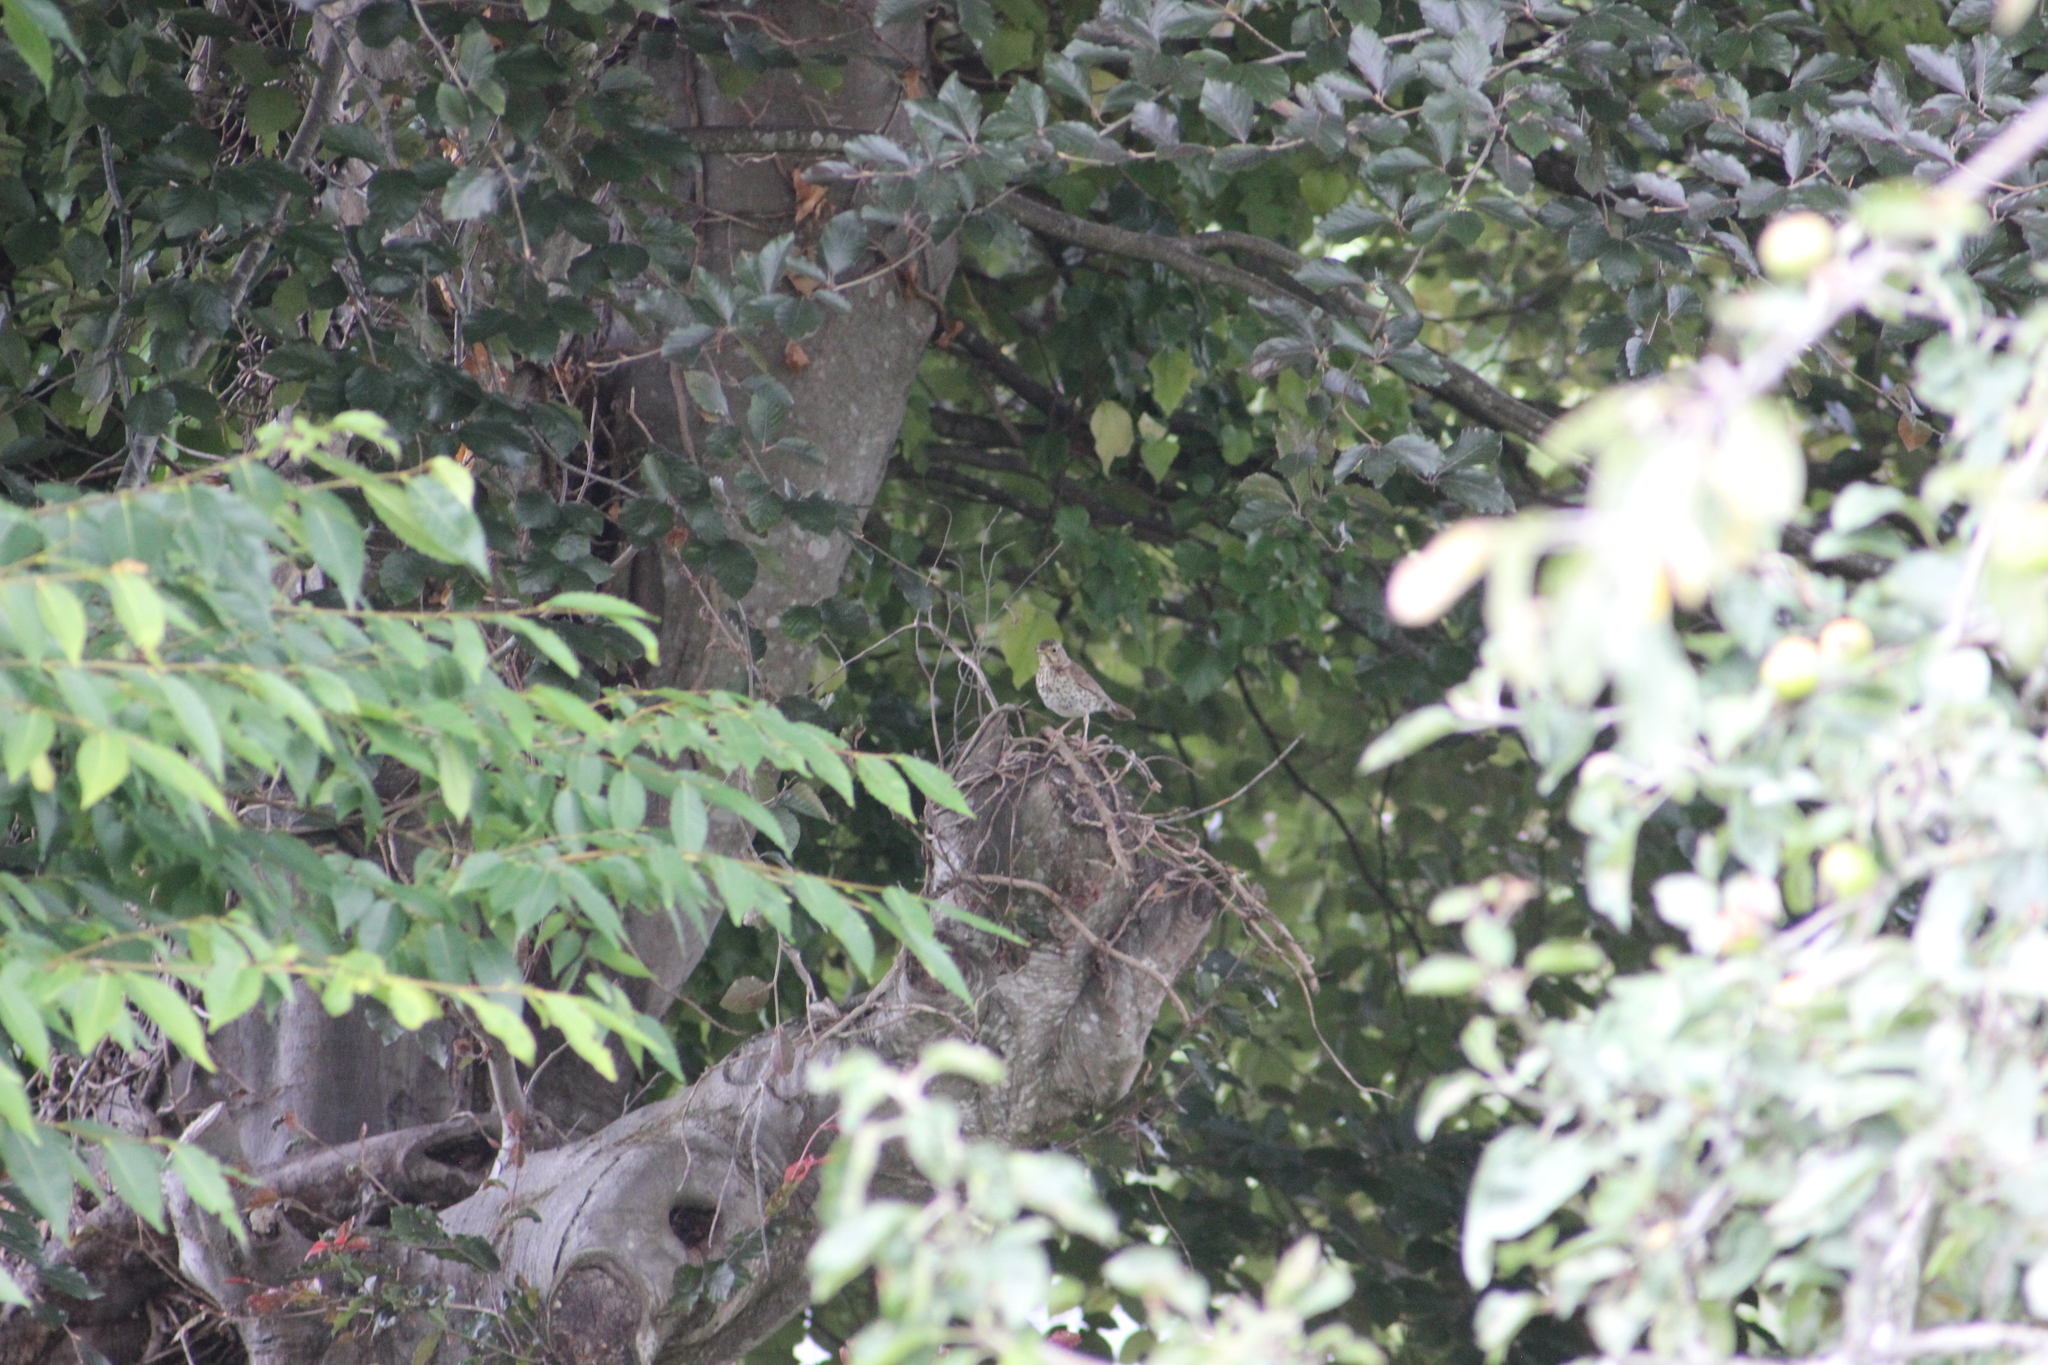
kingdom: Animalia
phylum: Chordata
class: Aves
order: Passeriformes
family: Turdidae
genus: Turdus
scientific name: Turdus philomelos
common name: Song thrush
